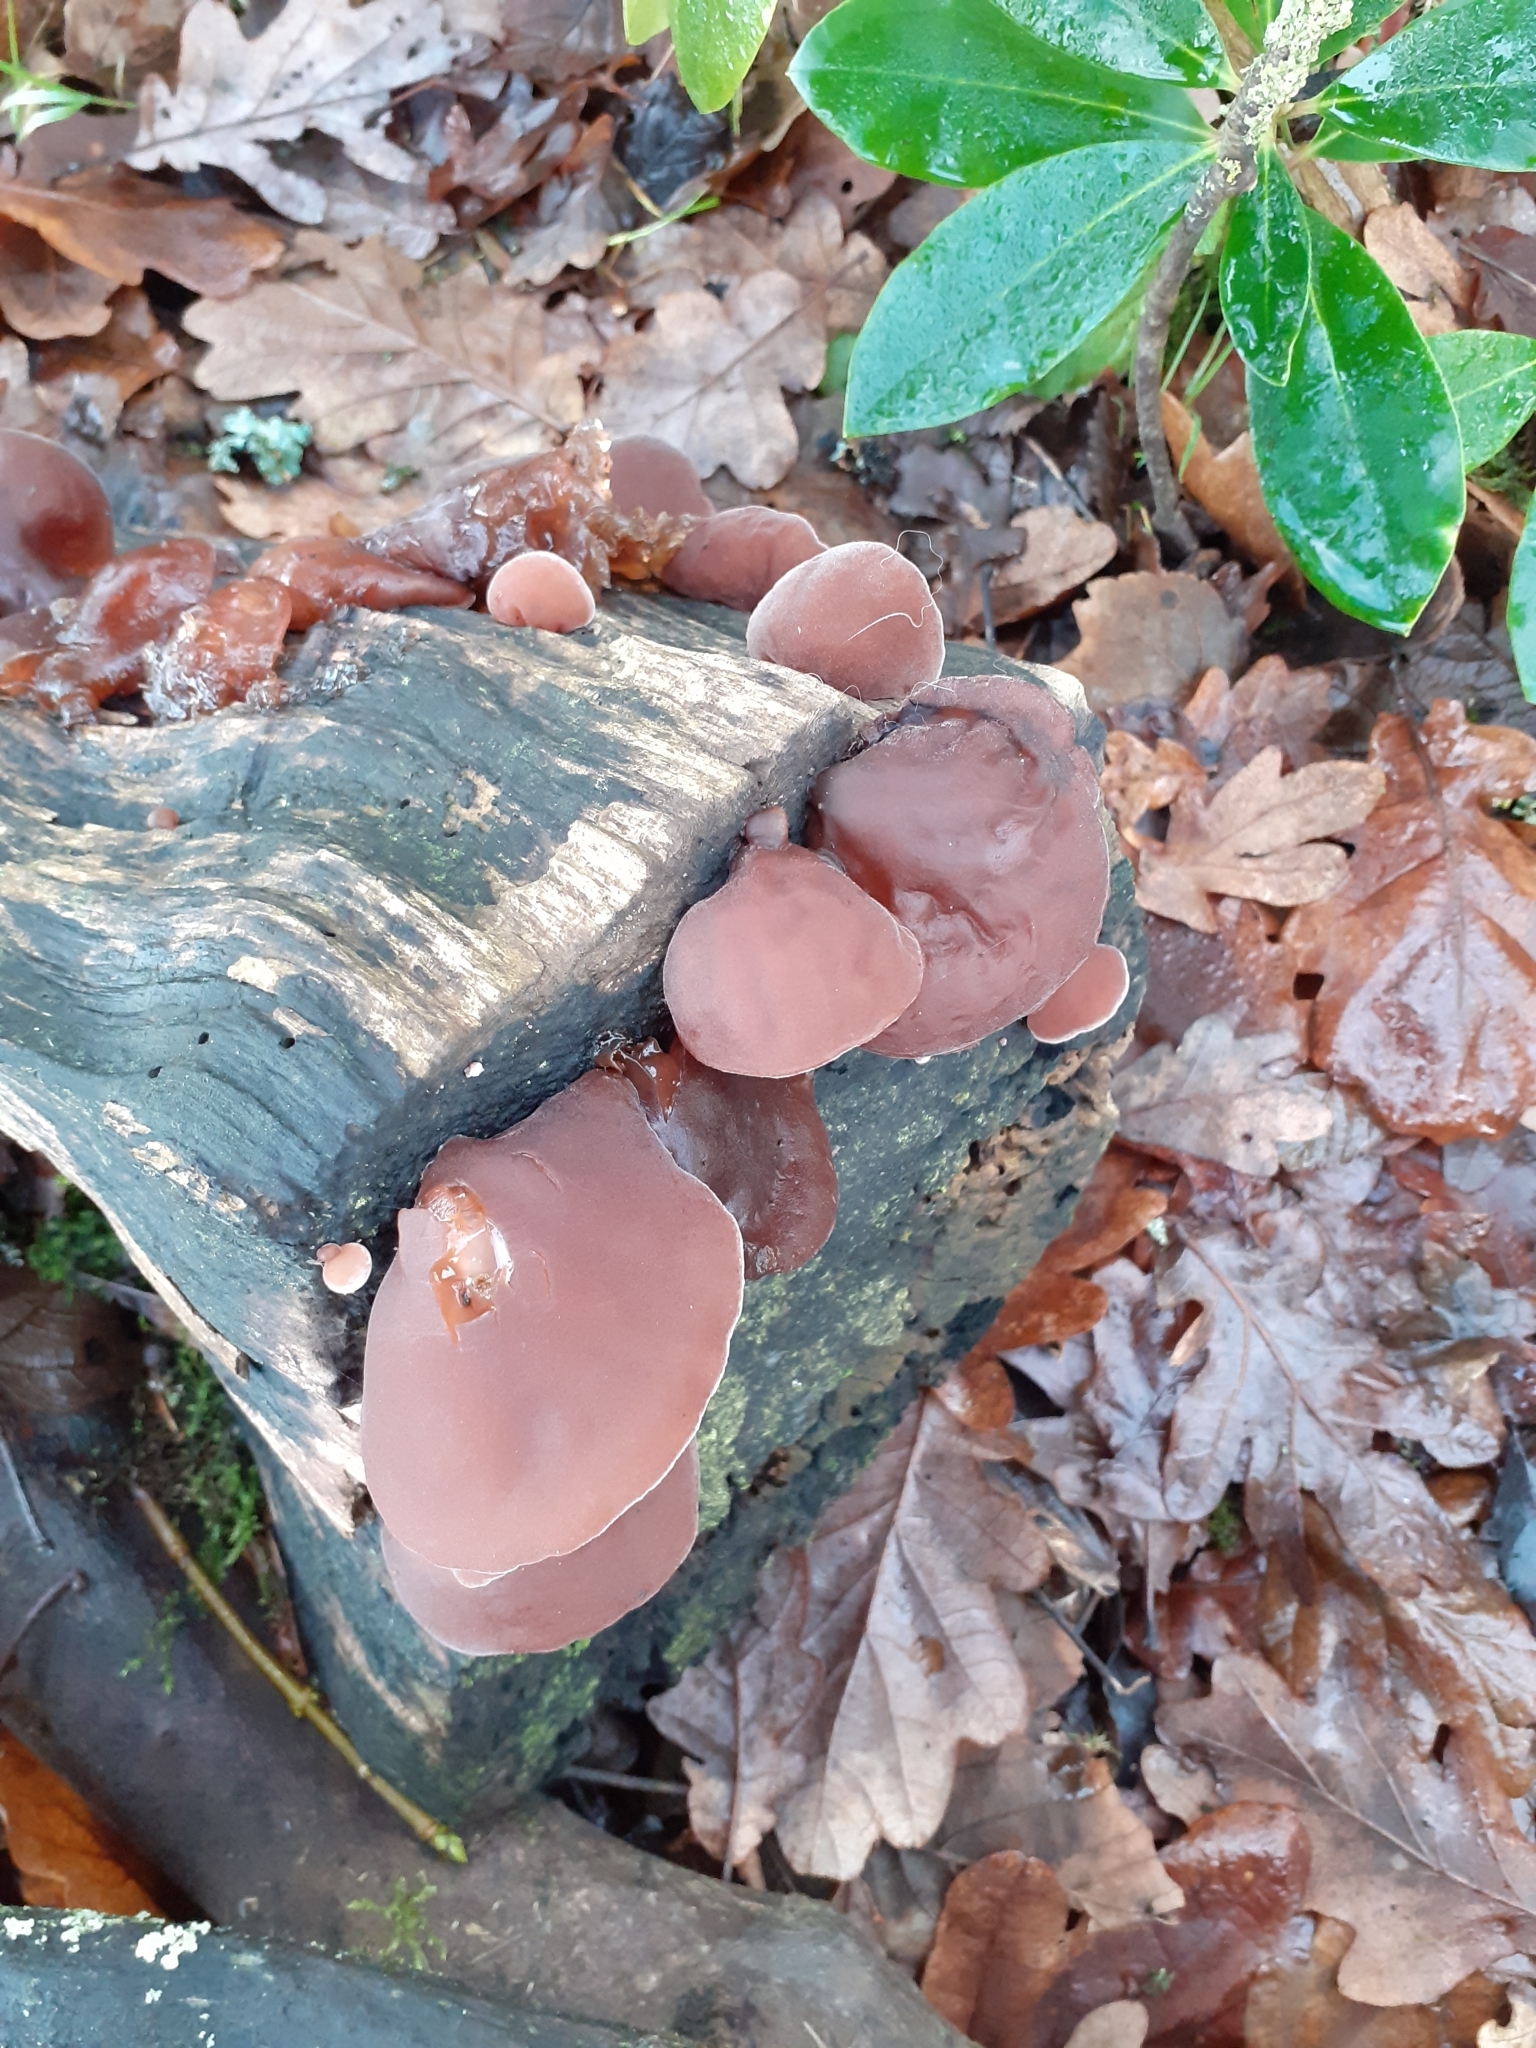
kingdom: Fungi
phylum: Basidiomycota
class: Agaricomycetes
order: Auriculariales
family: Auriculariaceae
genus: Auricularia
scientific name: Auricularia auricula-judae
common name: Jelly ear
